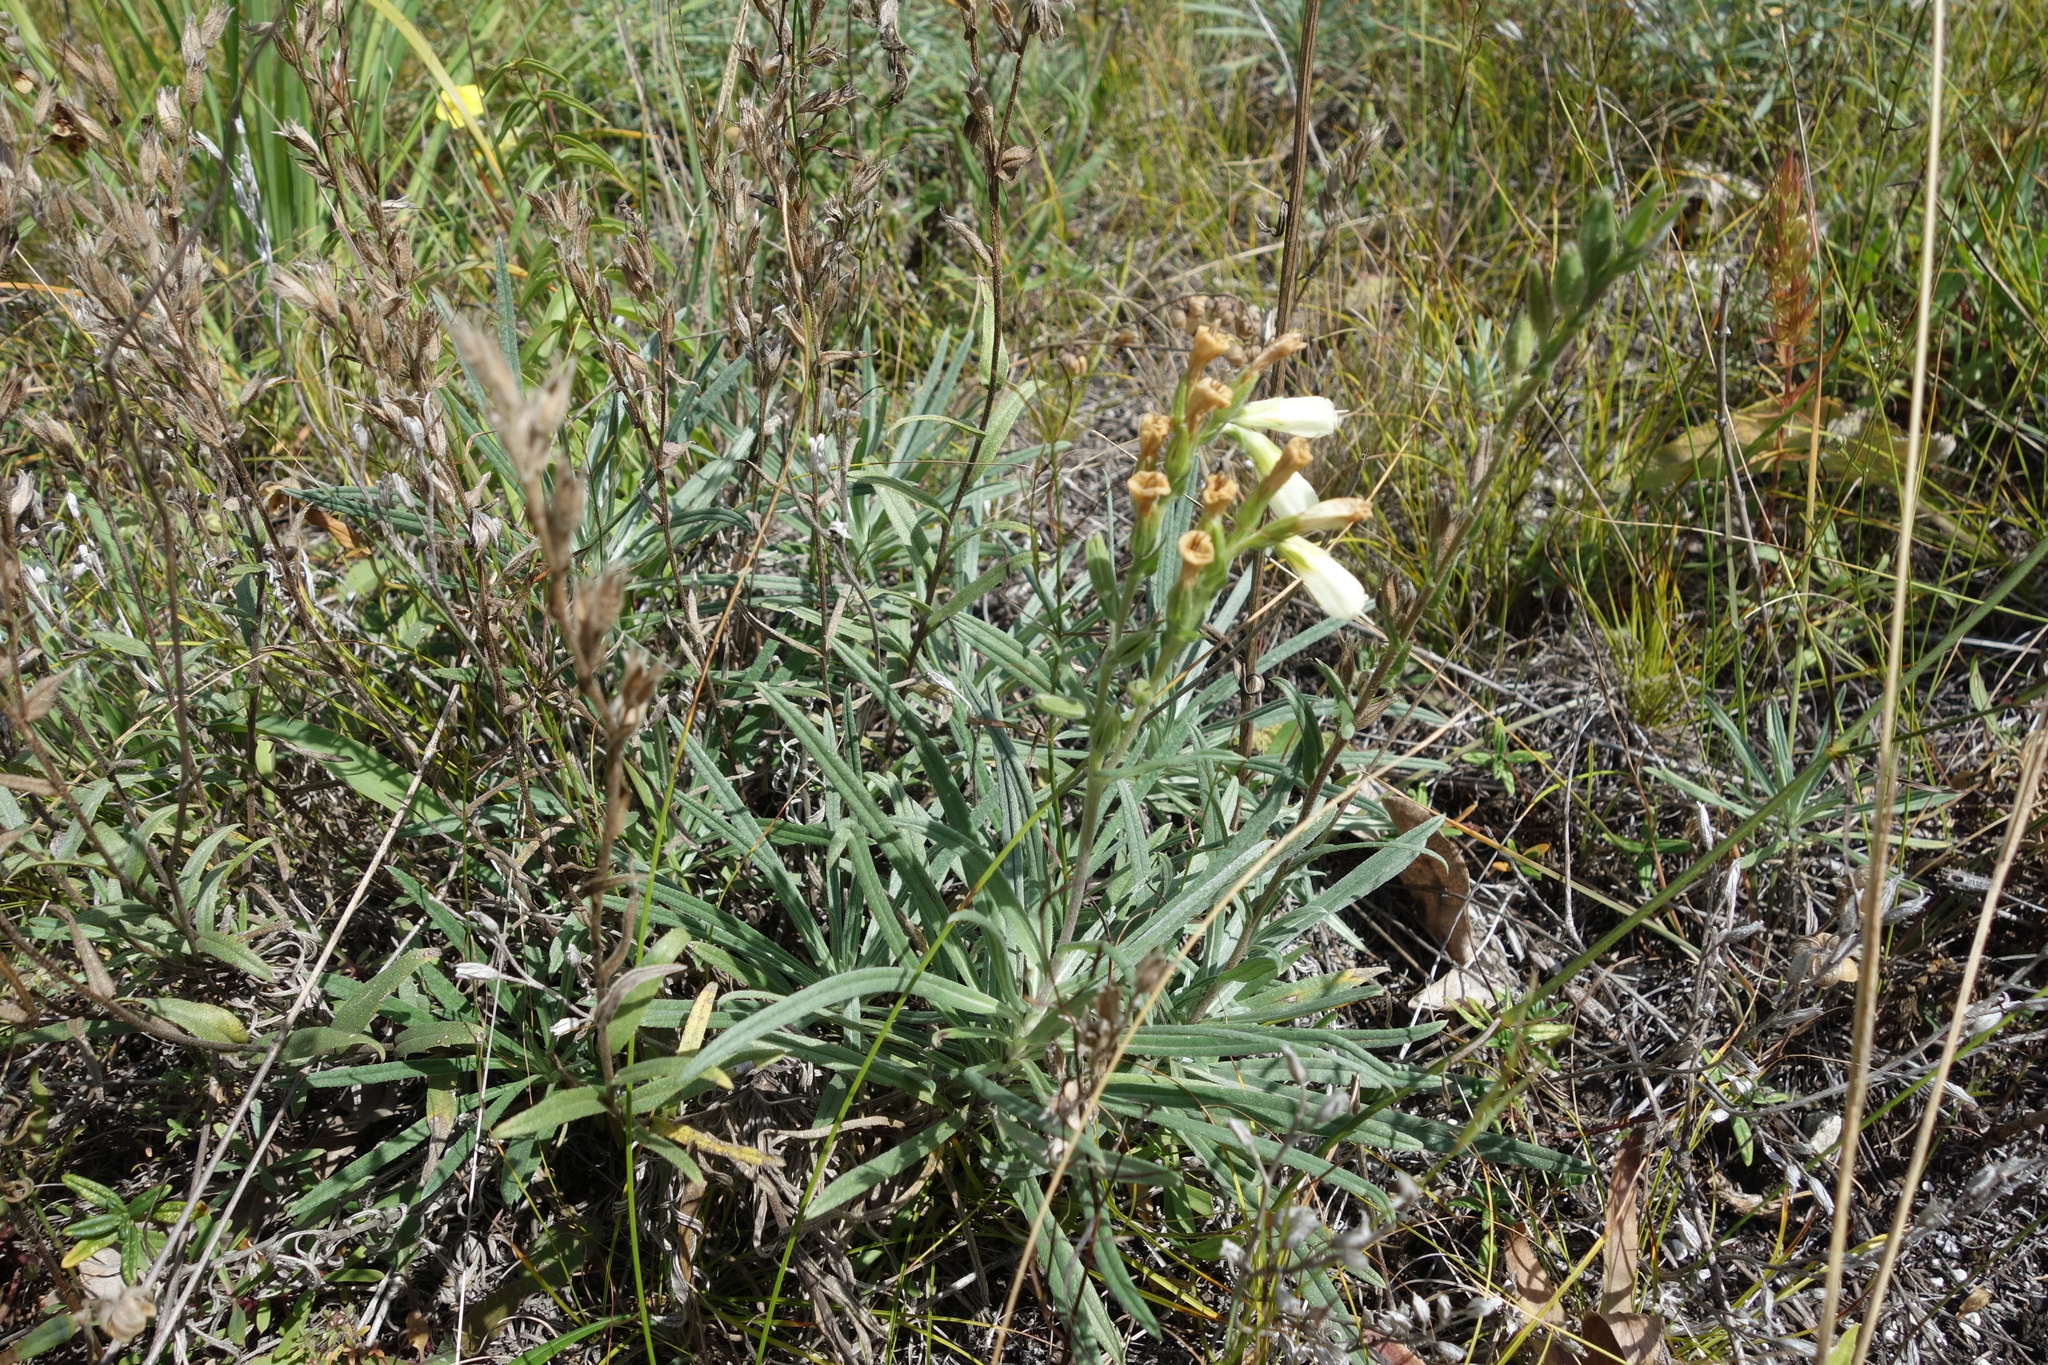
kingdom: Plantae
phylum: Tracheophyta
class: Magnoliopsida
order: Boraginales
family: Boraginaceae
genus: Onosma
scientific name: Onosma simplicissima
